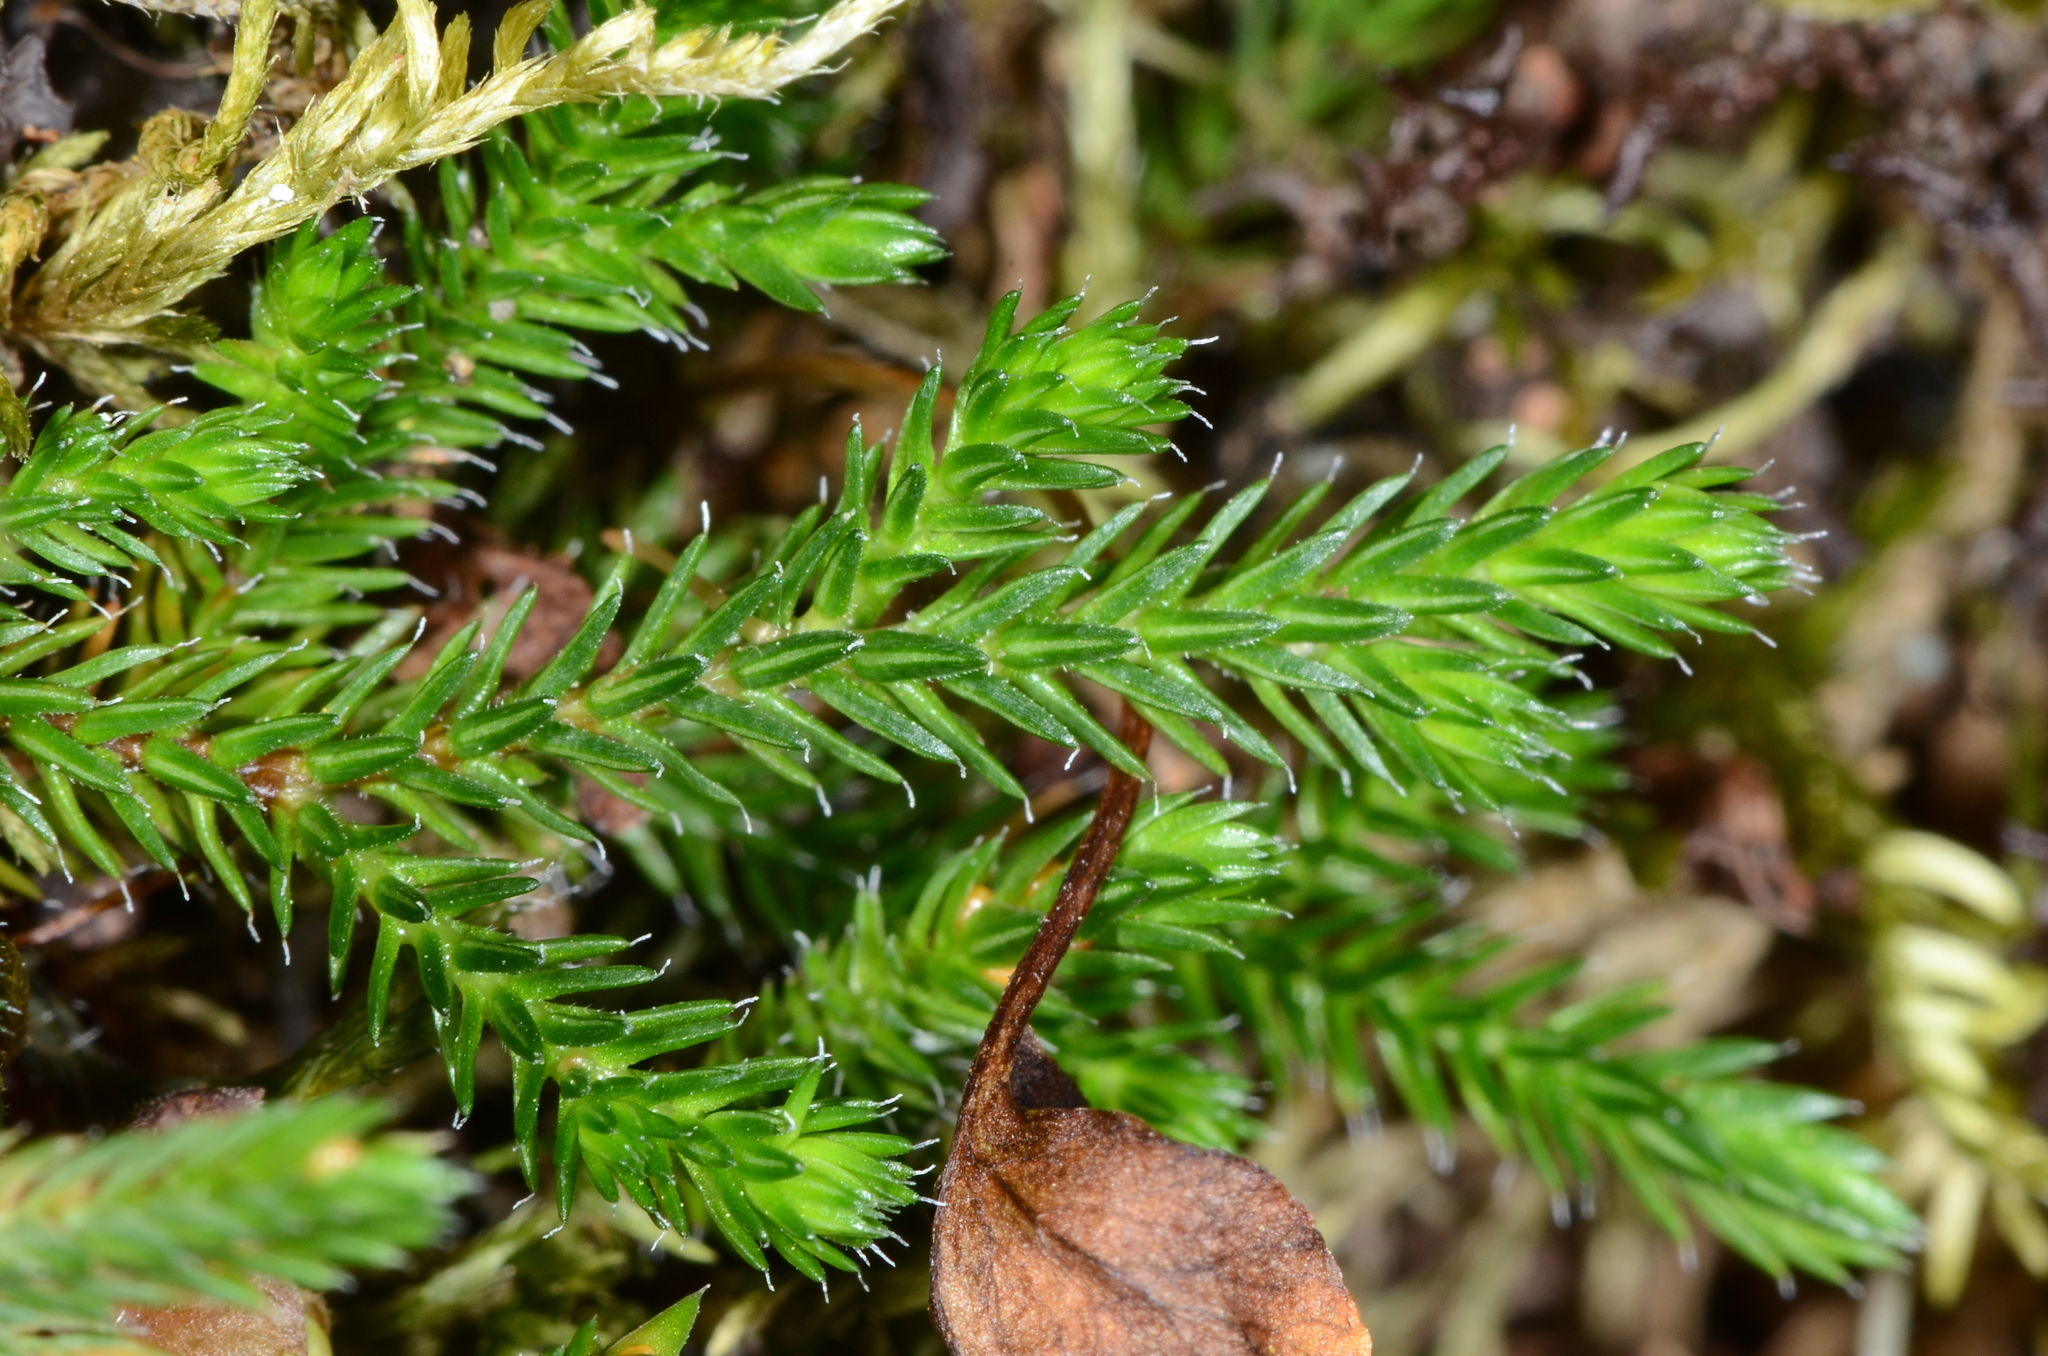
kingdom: Plantae
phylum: Tracheophyta
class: Lycopodiopsida
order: Selaginellales
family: Selaginellaceae
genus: Selaginella
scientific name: Selaginella wallacei
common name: Wallace's selaginella
